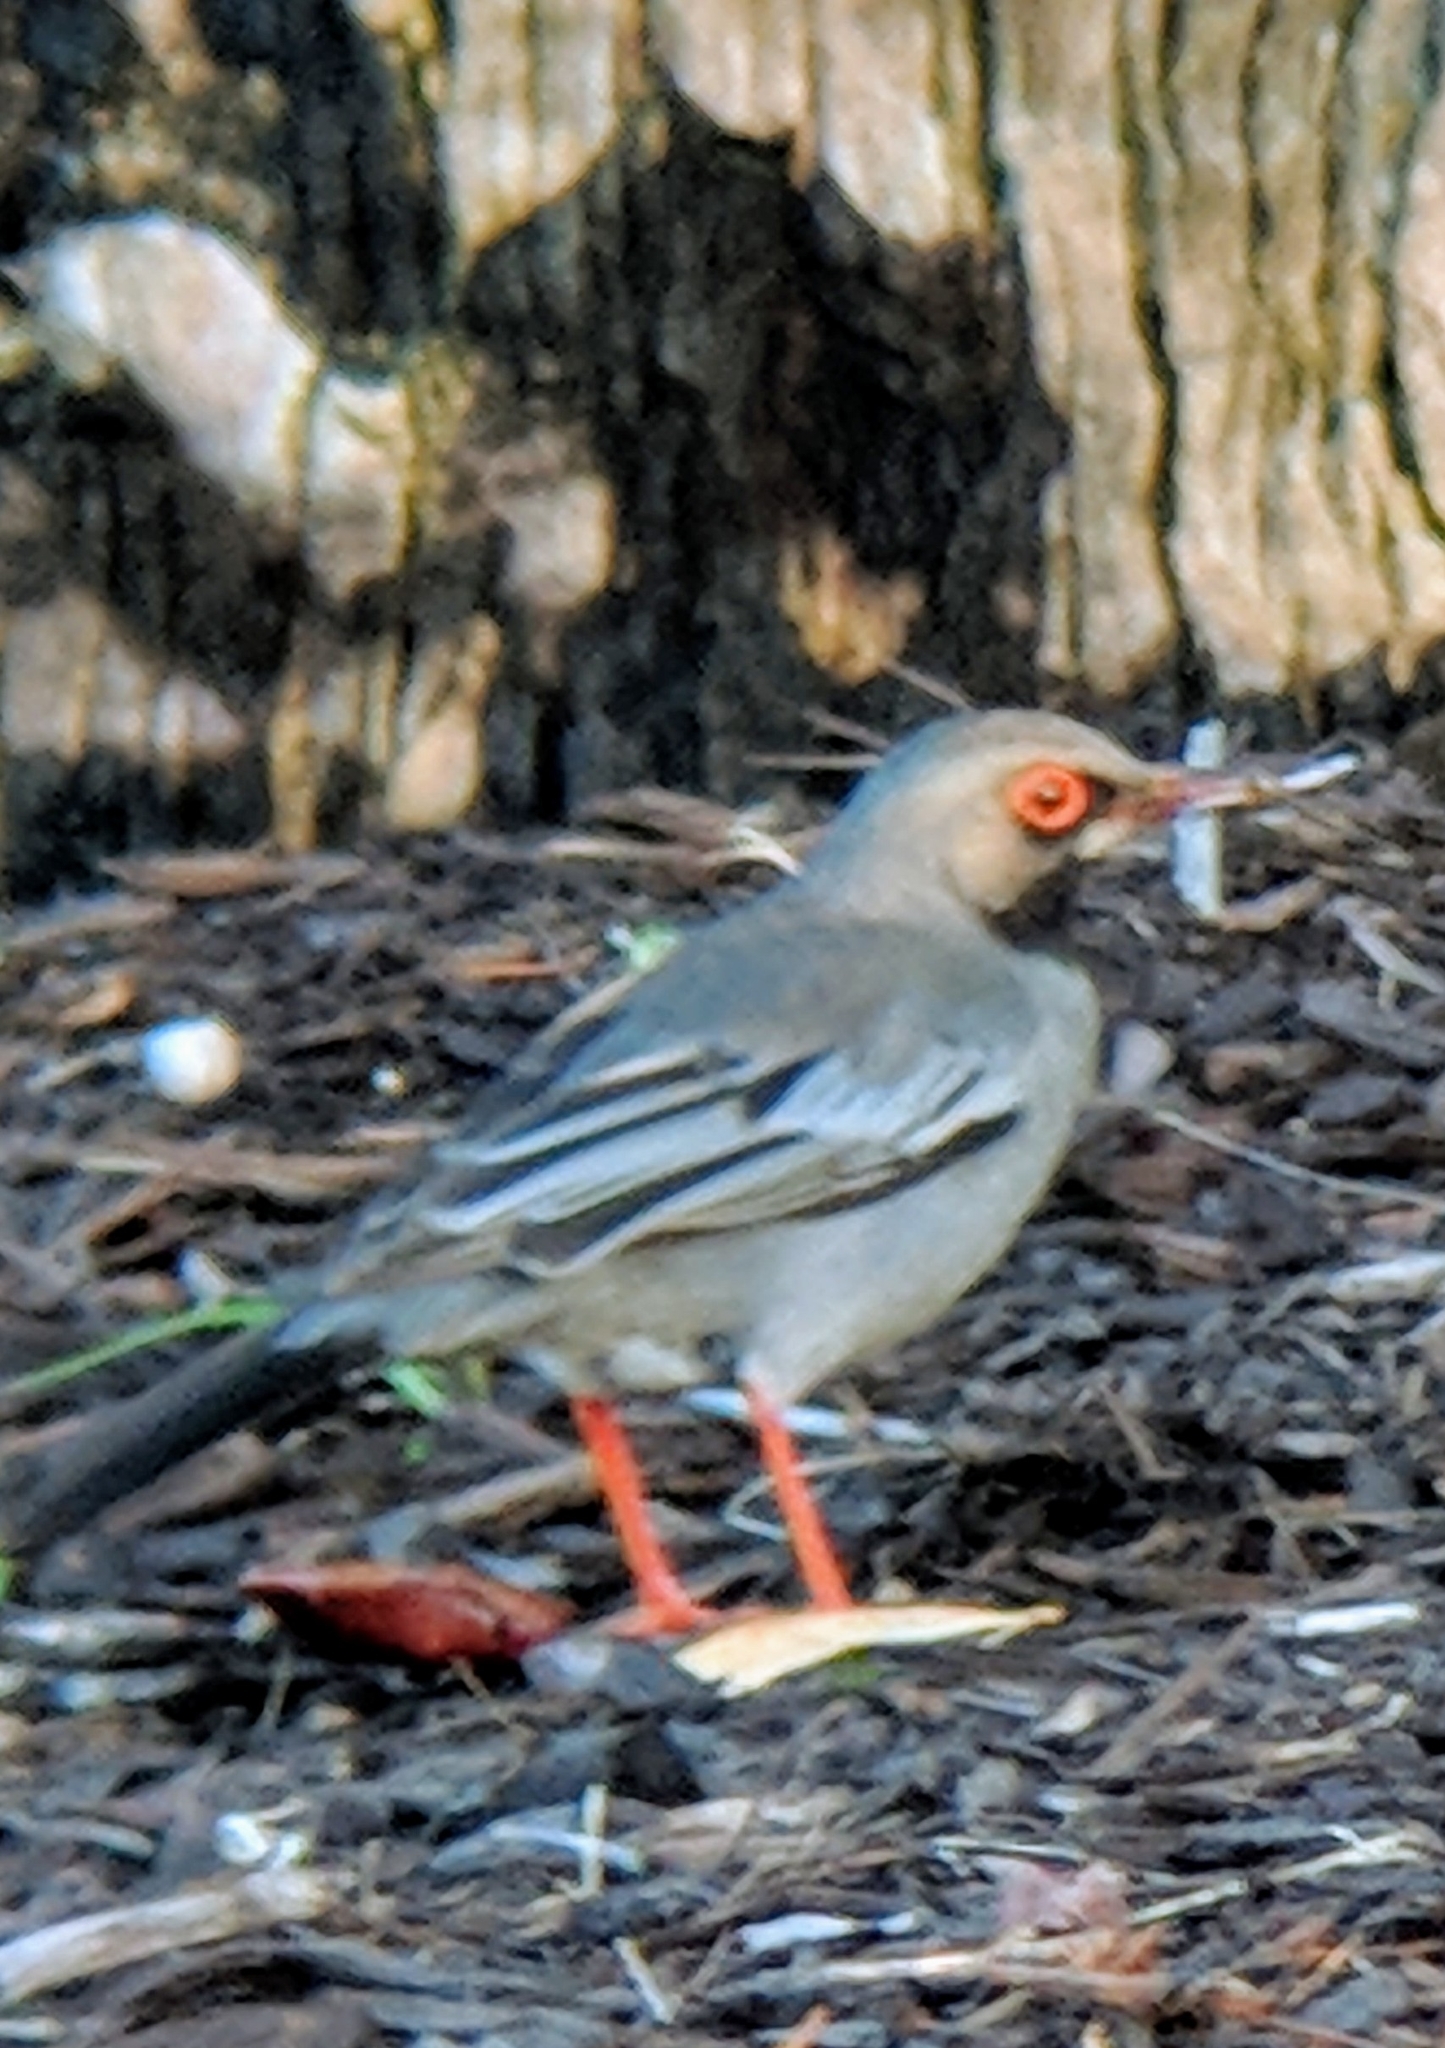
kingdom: Animalia
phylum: Chordata
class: Aves
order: Passeriformes
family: Turdidae
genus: Turdus
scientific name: Turdus plumbeus
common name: Red-legged thrush
